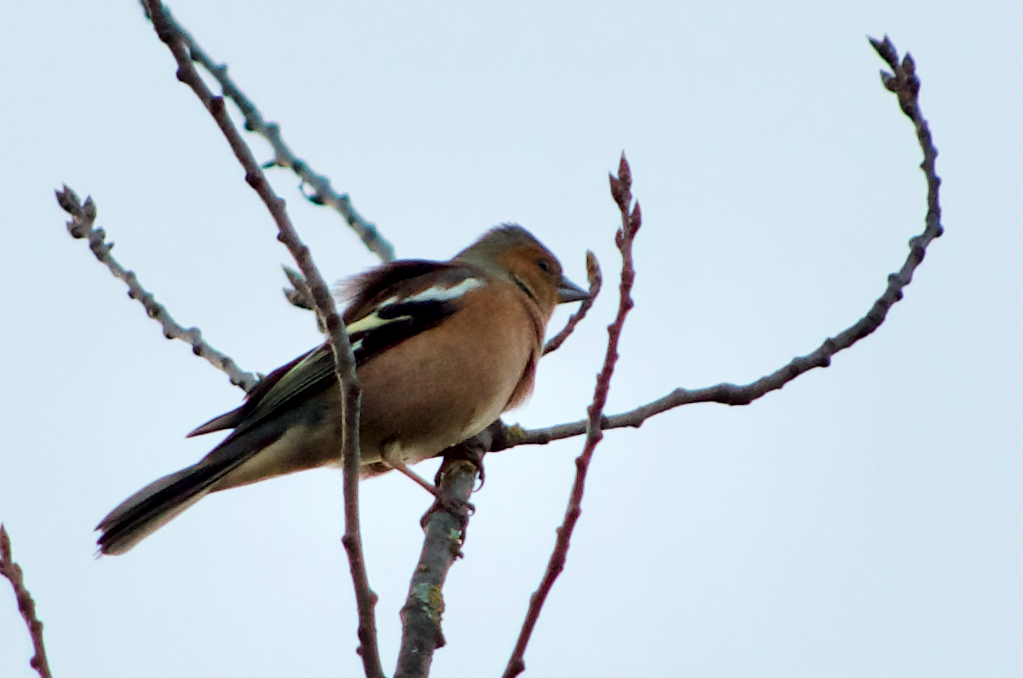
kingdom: Animalia
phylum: Chordata
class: Aves
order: Passeriformes
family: Fringillidae
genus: Fringilla
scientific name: Fringilla coelebs
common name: Common chaffinch
